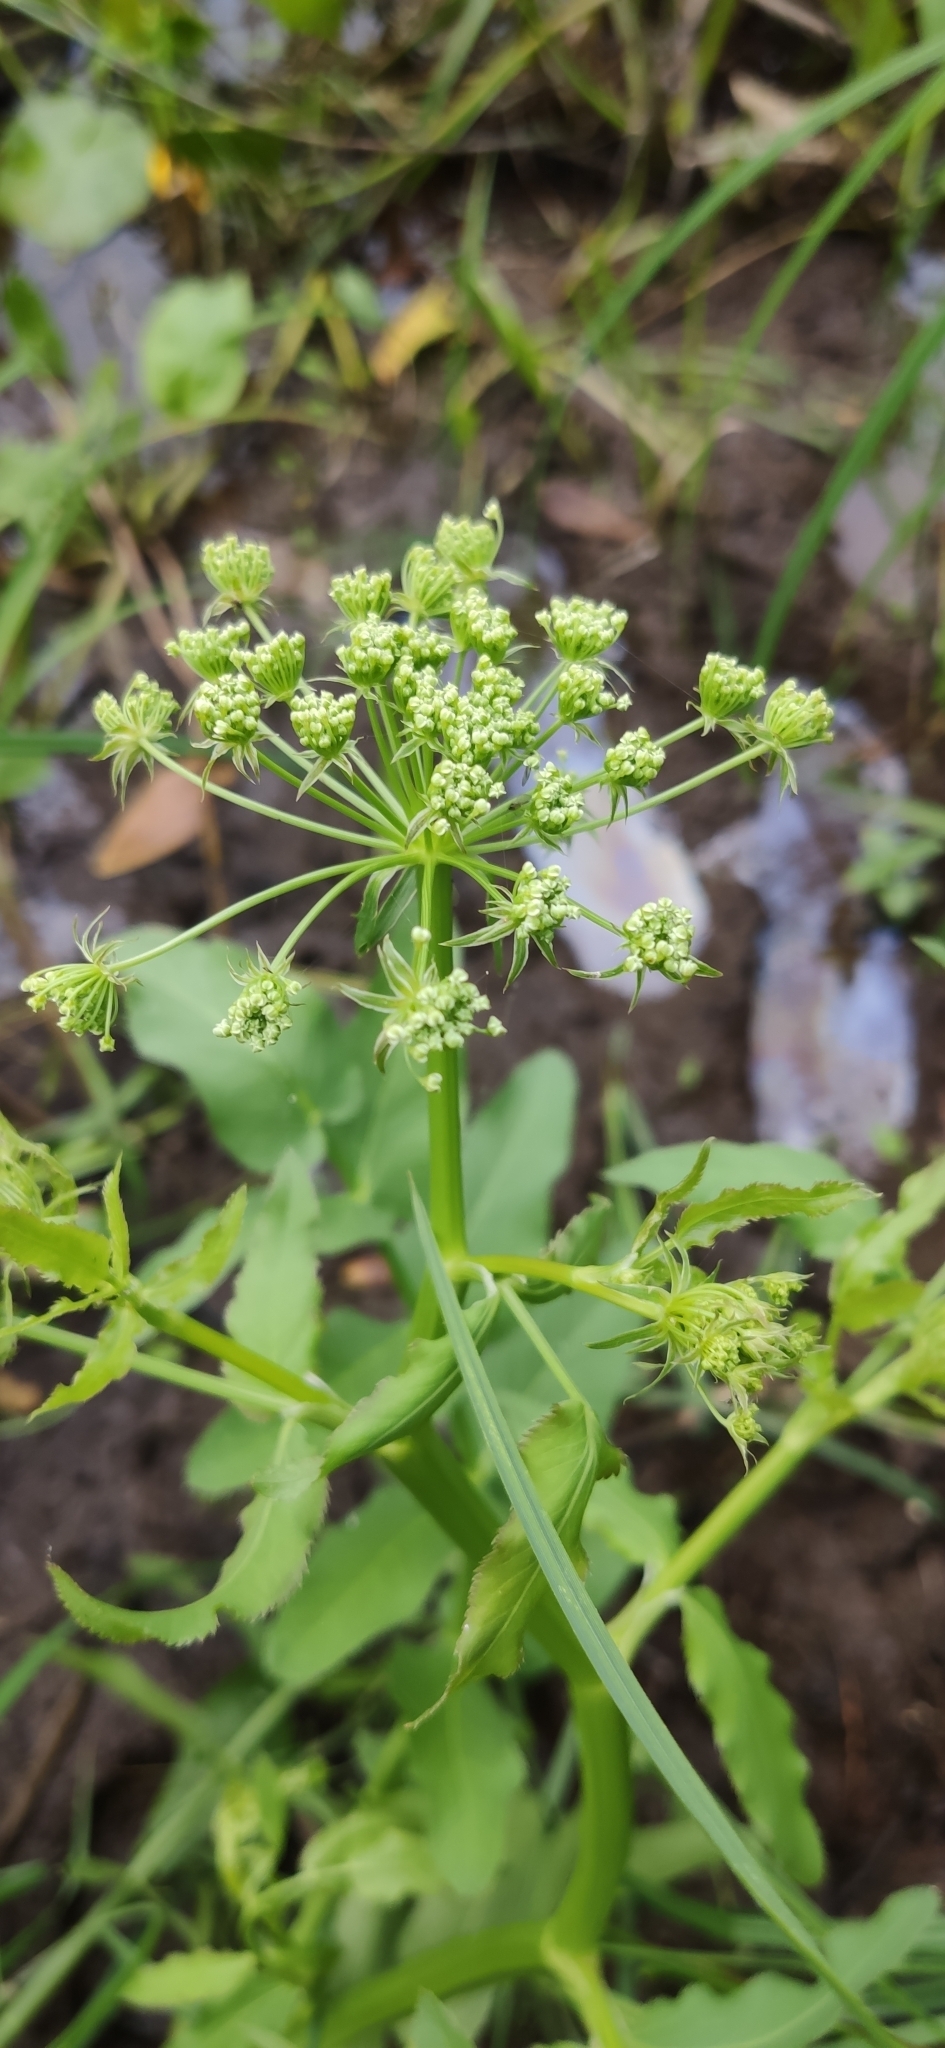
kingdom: Plantae
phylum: Tracheophyta
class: Magnoliopsida
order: Apiales
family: Apiaceae
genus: Sium
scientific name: Sium latifolium
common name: Greater water-parsnip
